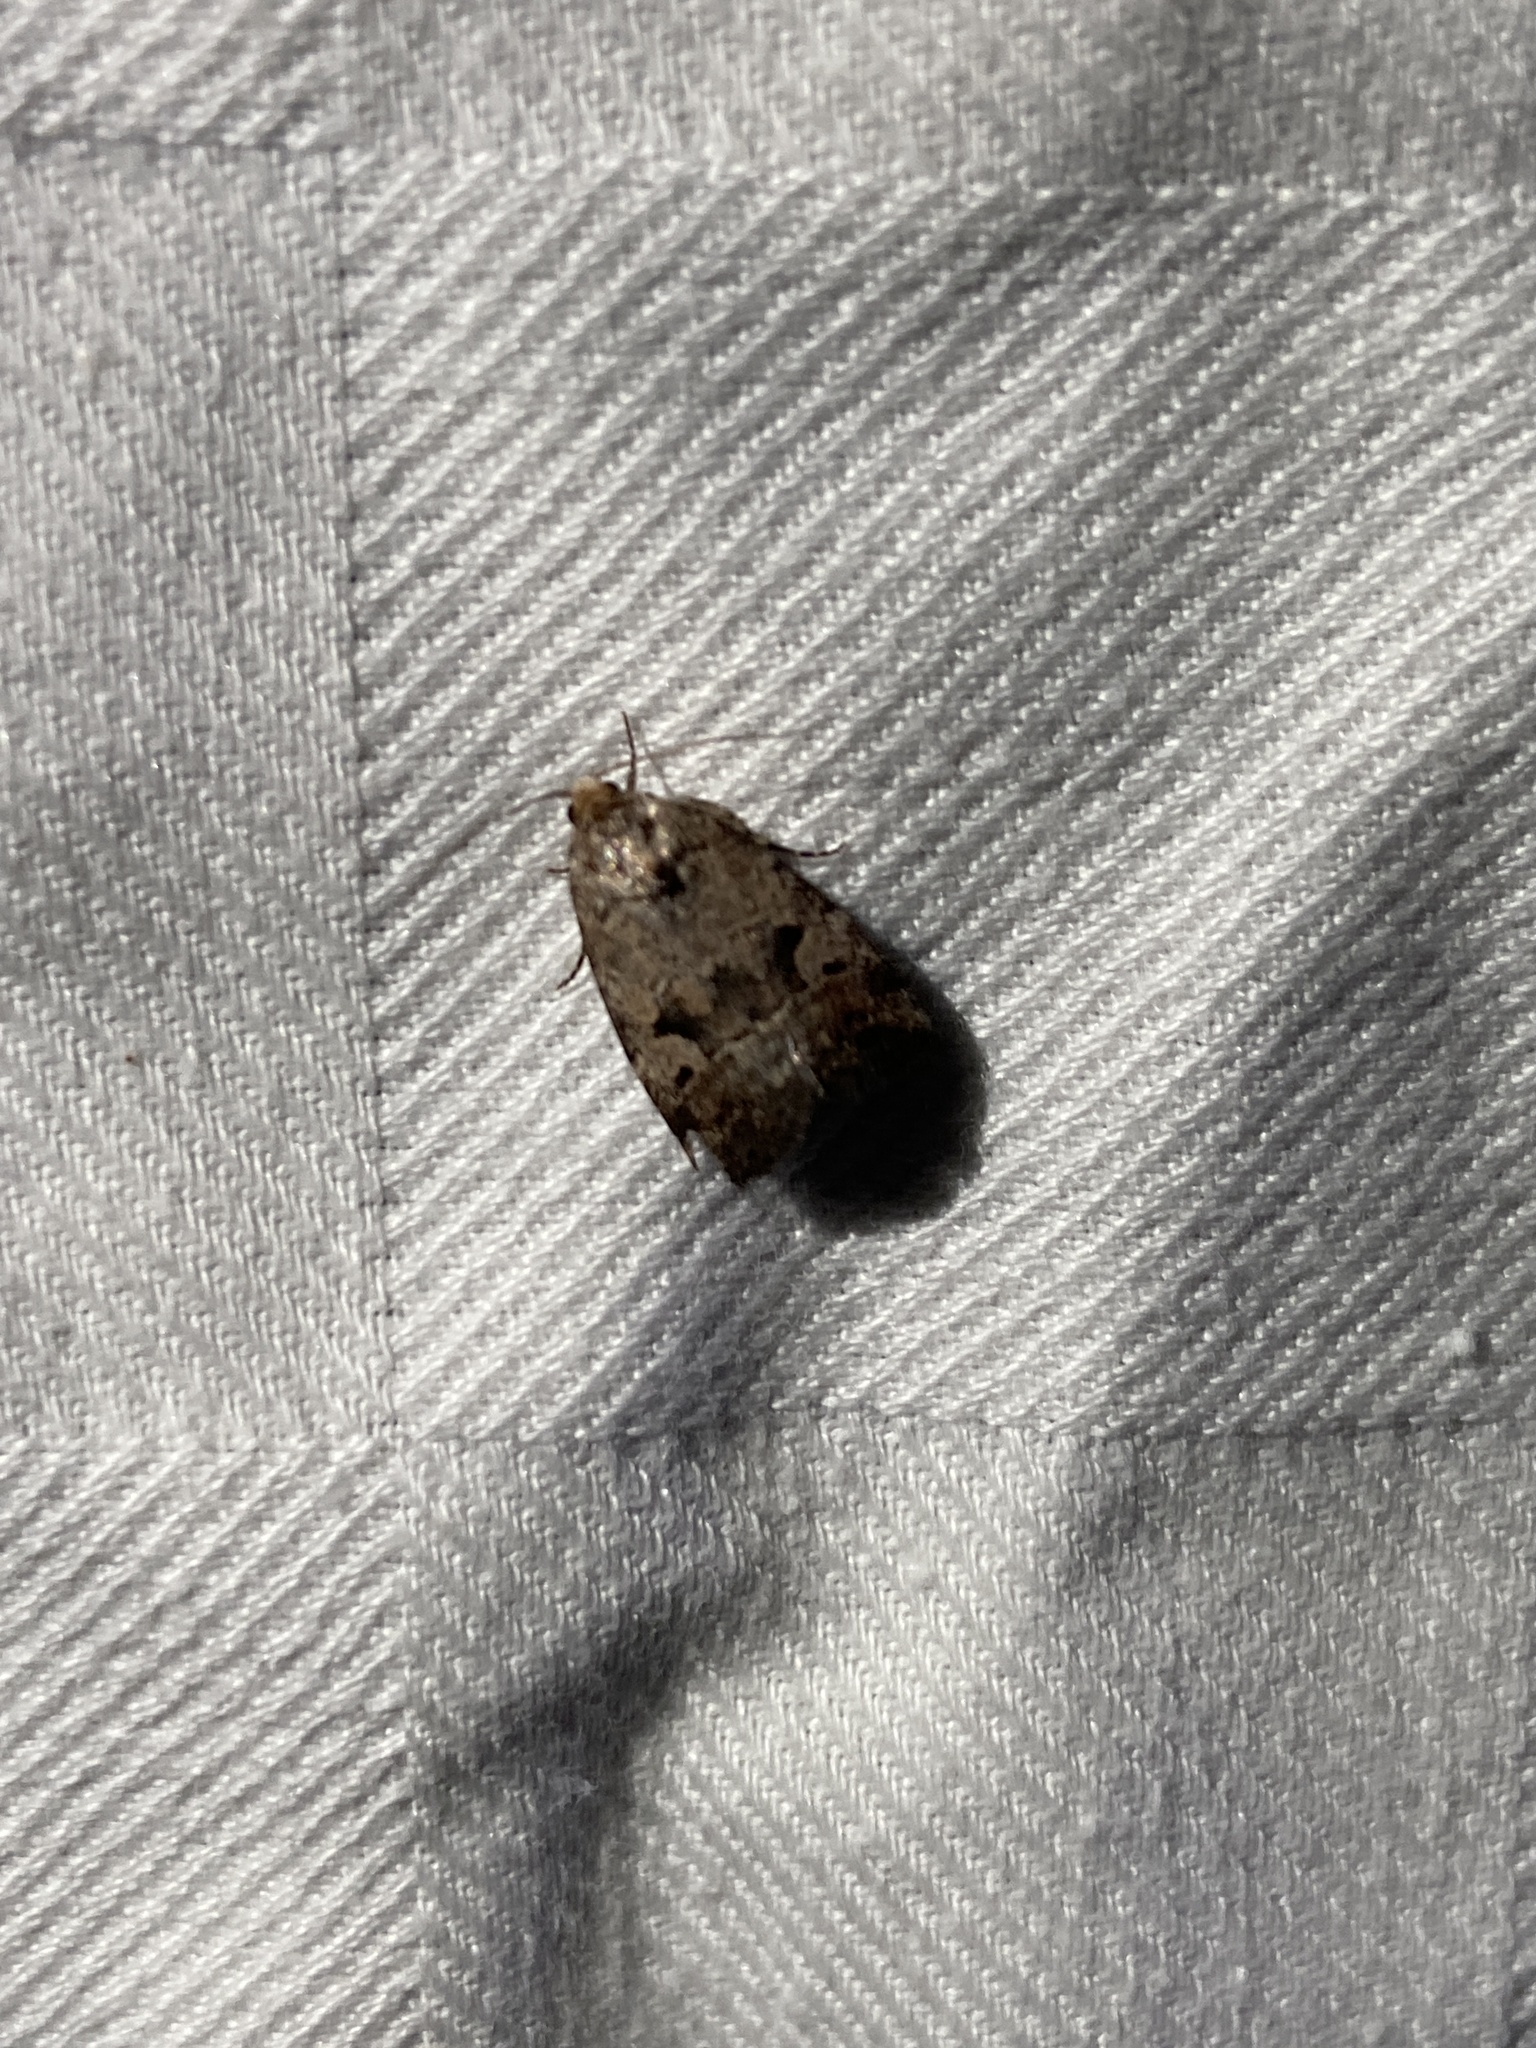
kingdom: Animalia
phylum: Arthropoda
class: Insecta
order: Lepidoptera
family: Noctuidae
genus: Elaphria
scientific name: Elaphria festivoides
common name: Festive midget
